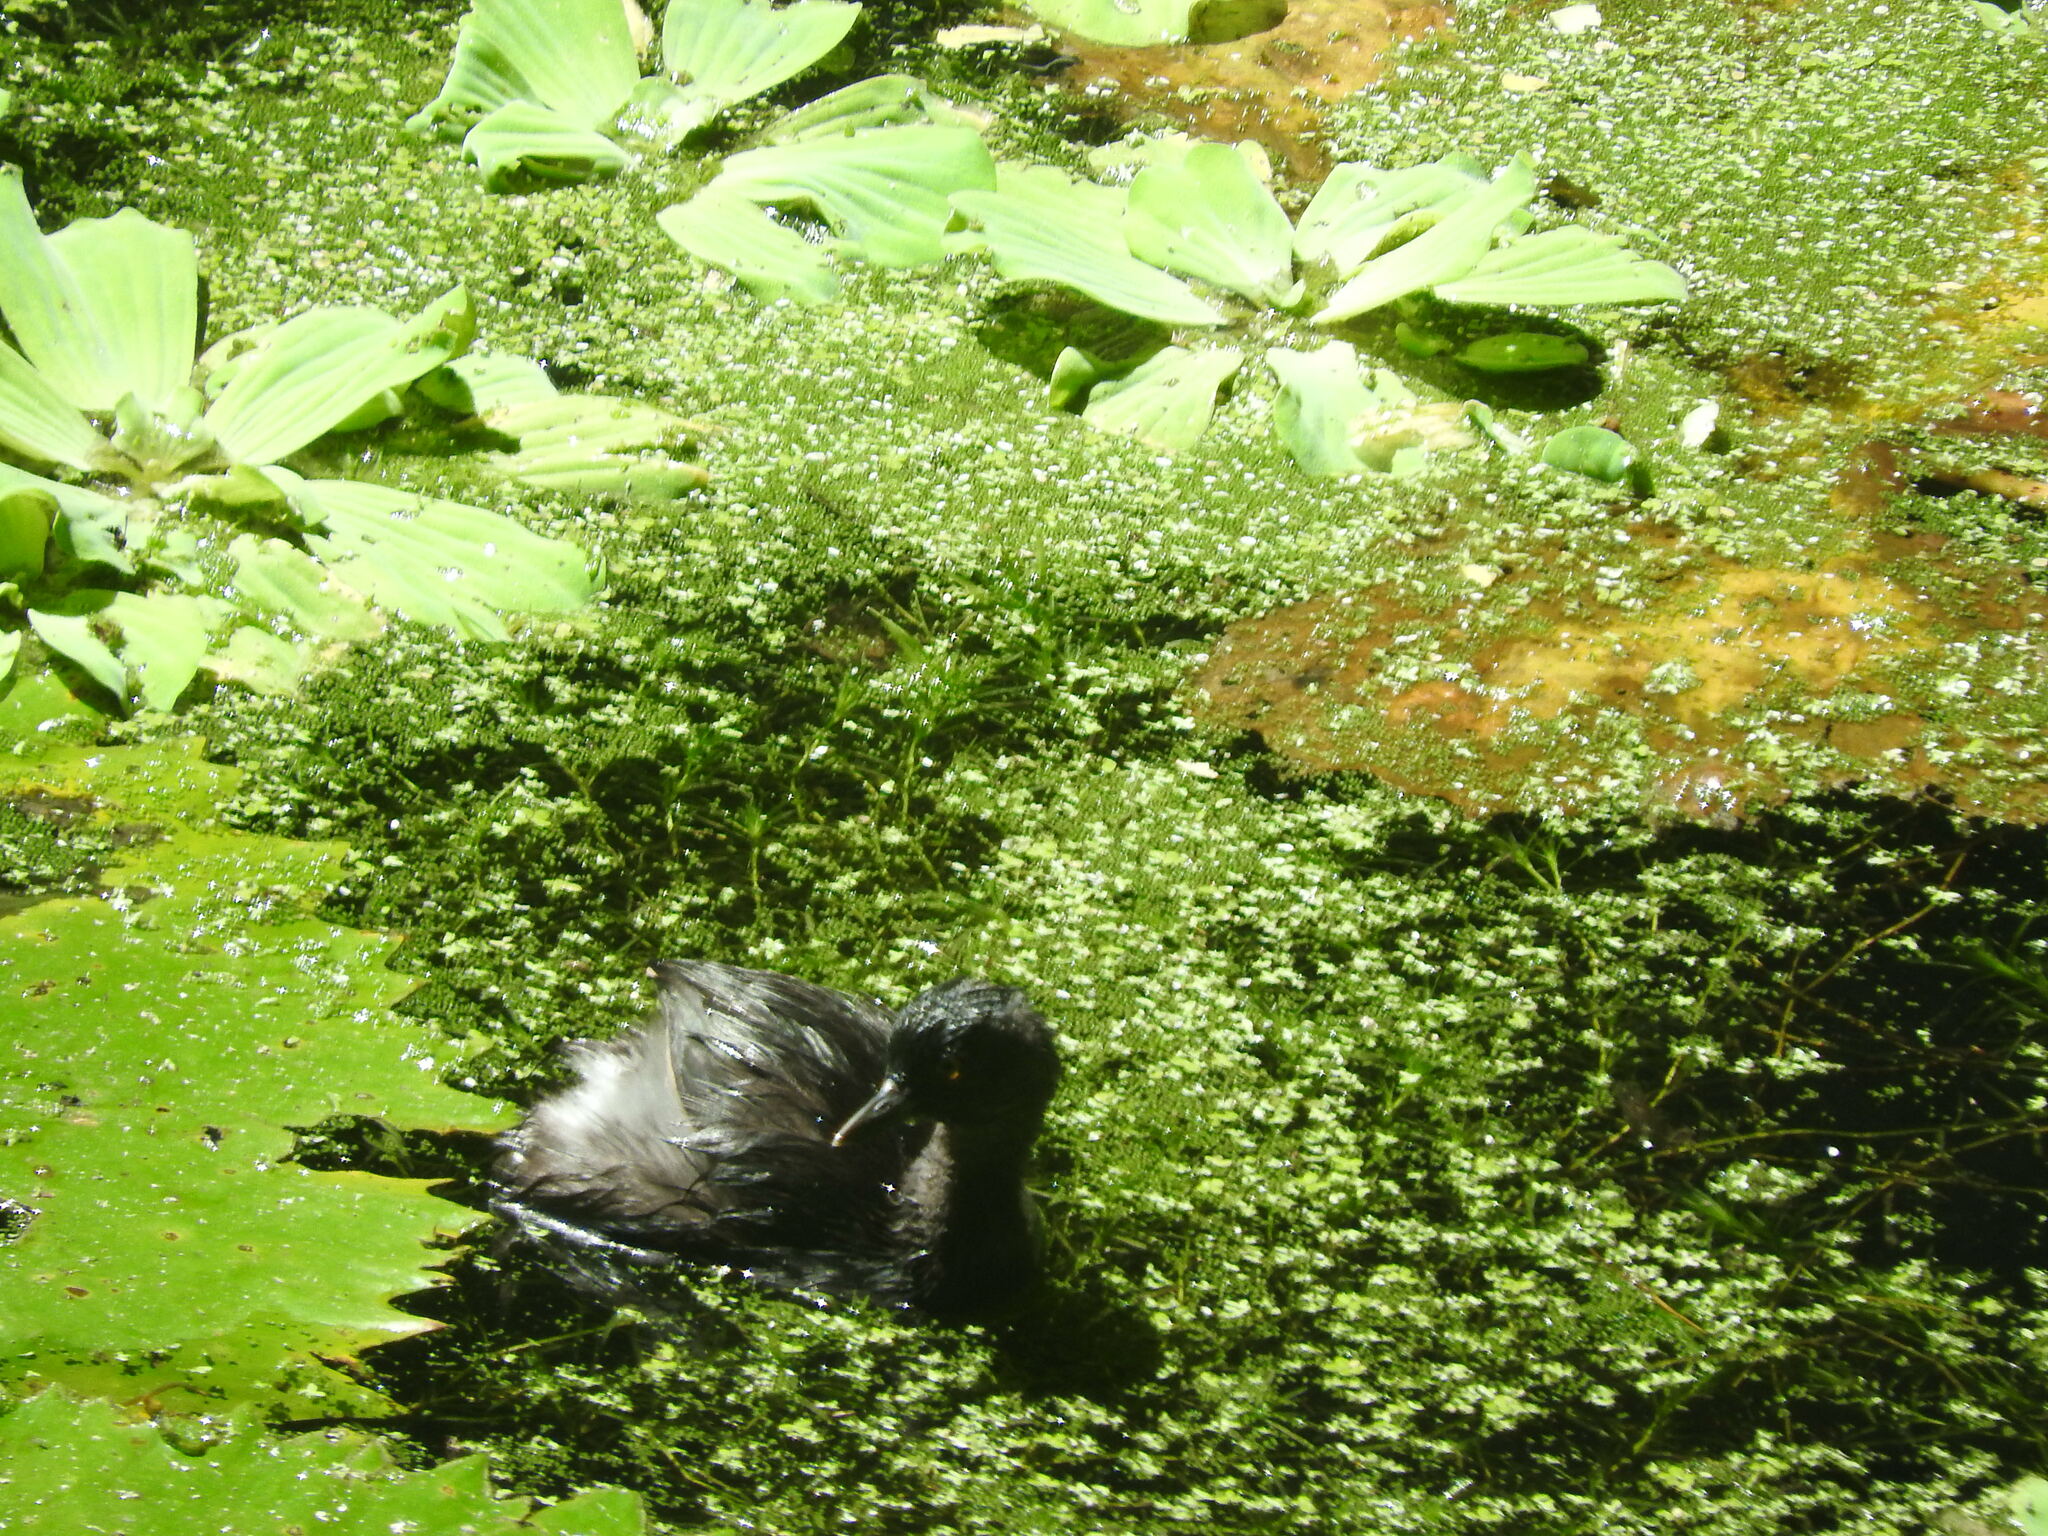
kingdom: Animalia
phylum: Chordata
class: Aves
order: Podicipediformes
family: Podicipedidae
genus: Tachybaptus
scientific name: Tachybaptus dominicus
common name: Least grebe
